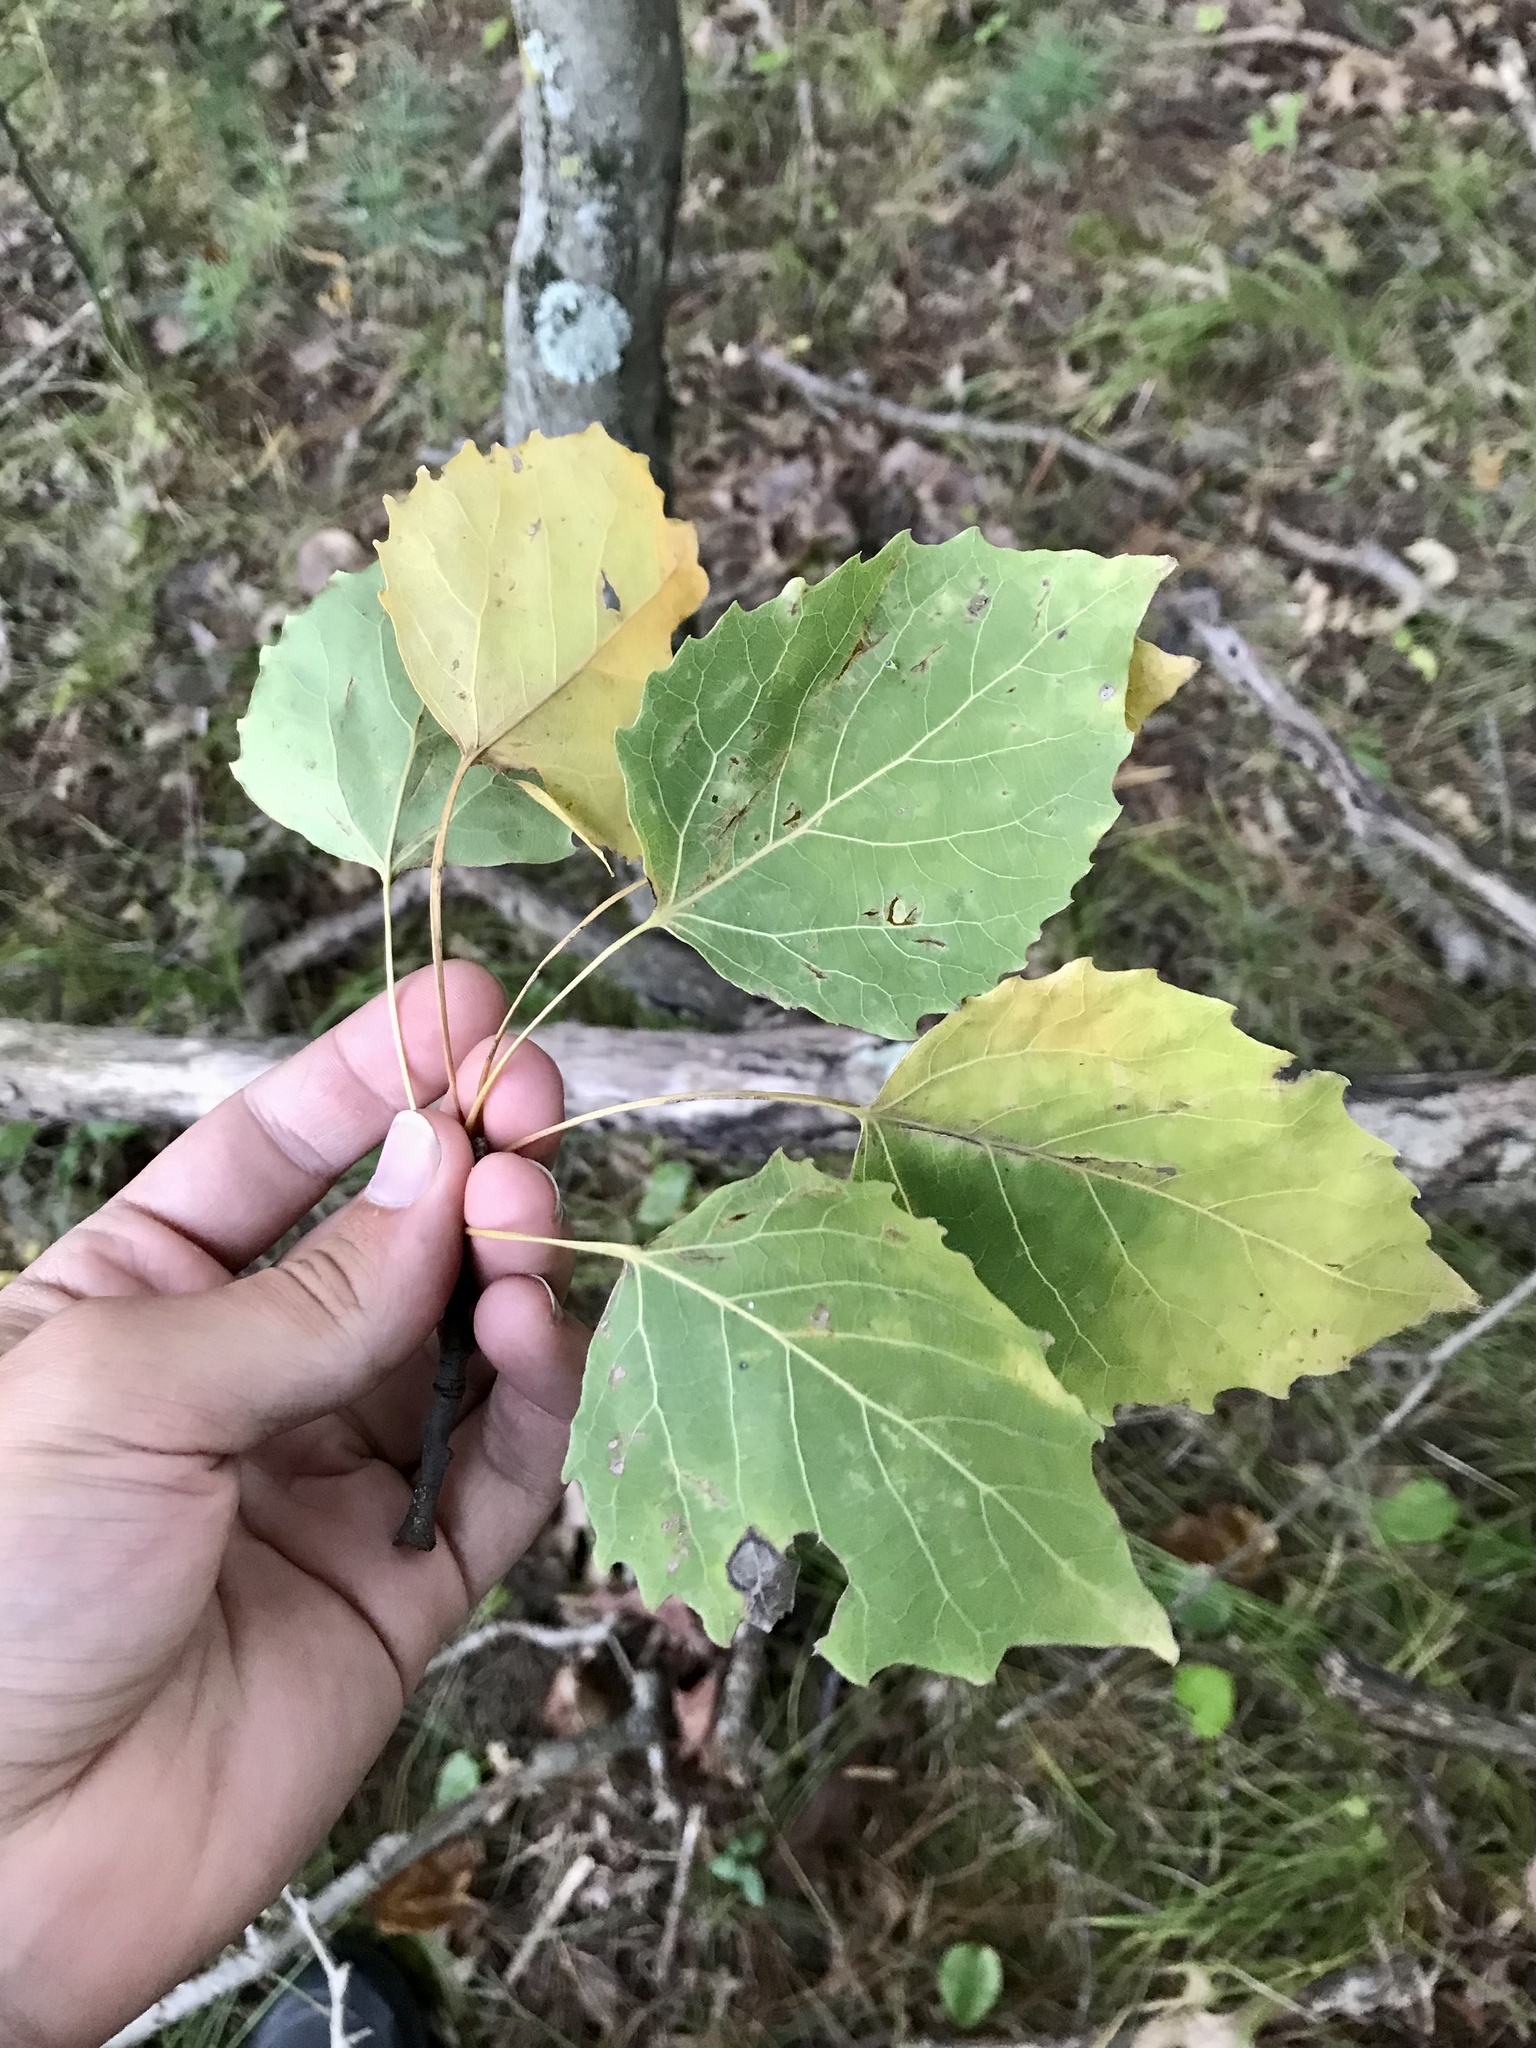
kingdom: Plantae
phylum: Tracheophyta
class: Magnoliopsida
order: Malpighiales
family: Salicaceae
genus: Populus
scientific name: Populus grandidentata
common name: Bigtooth aspen
